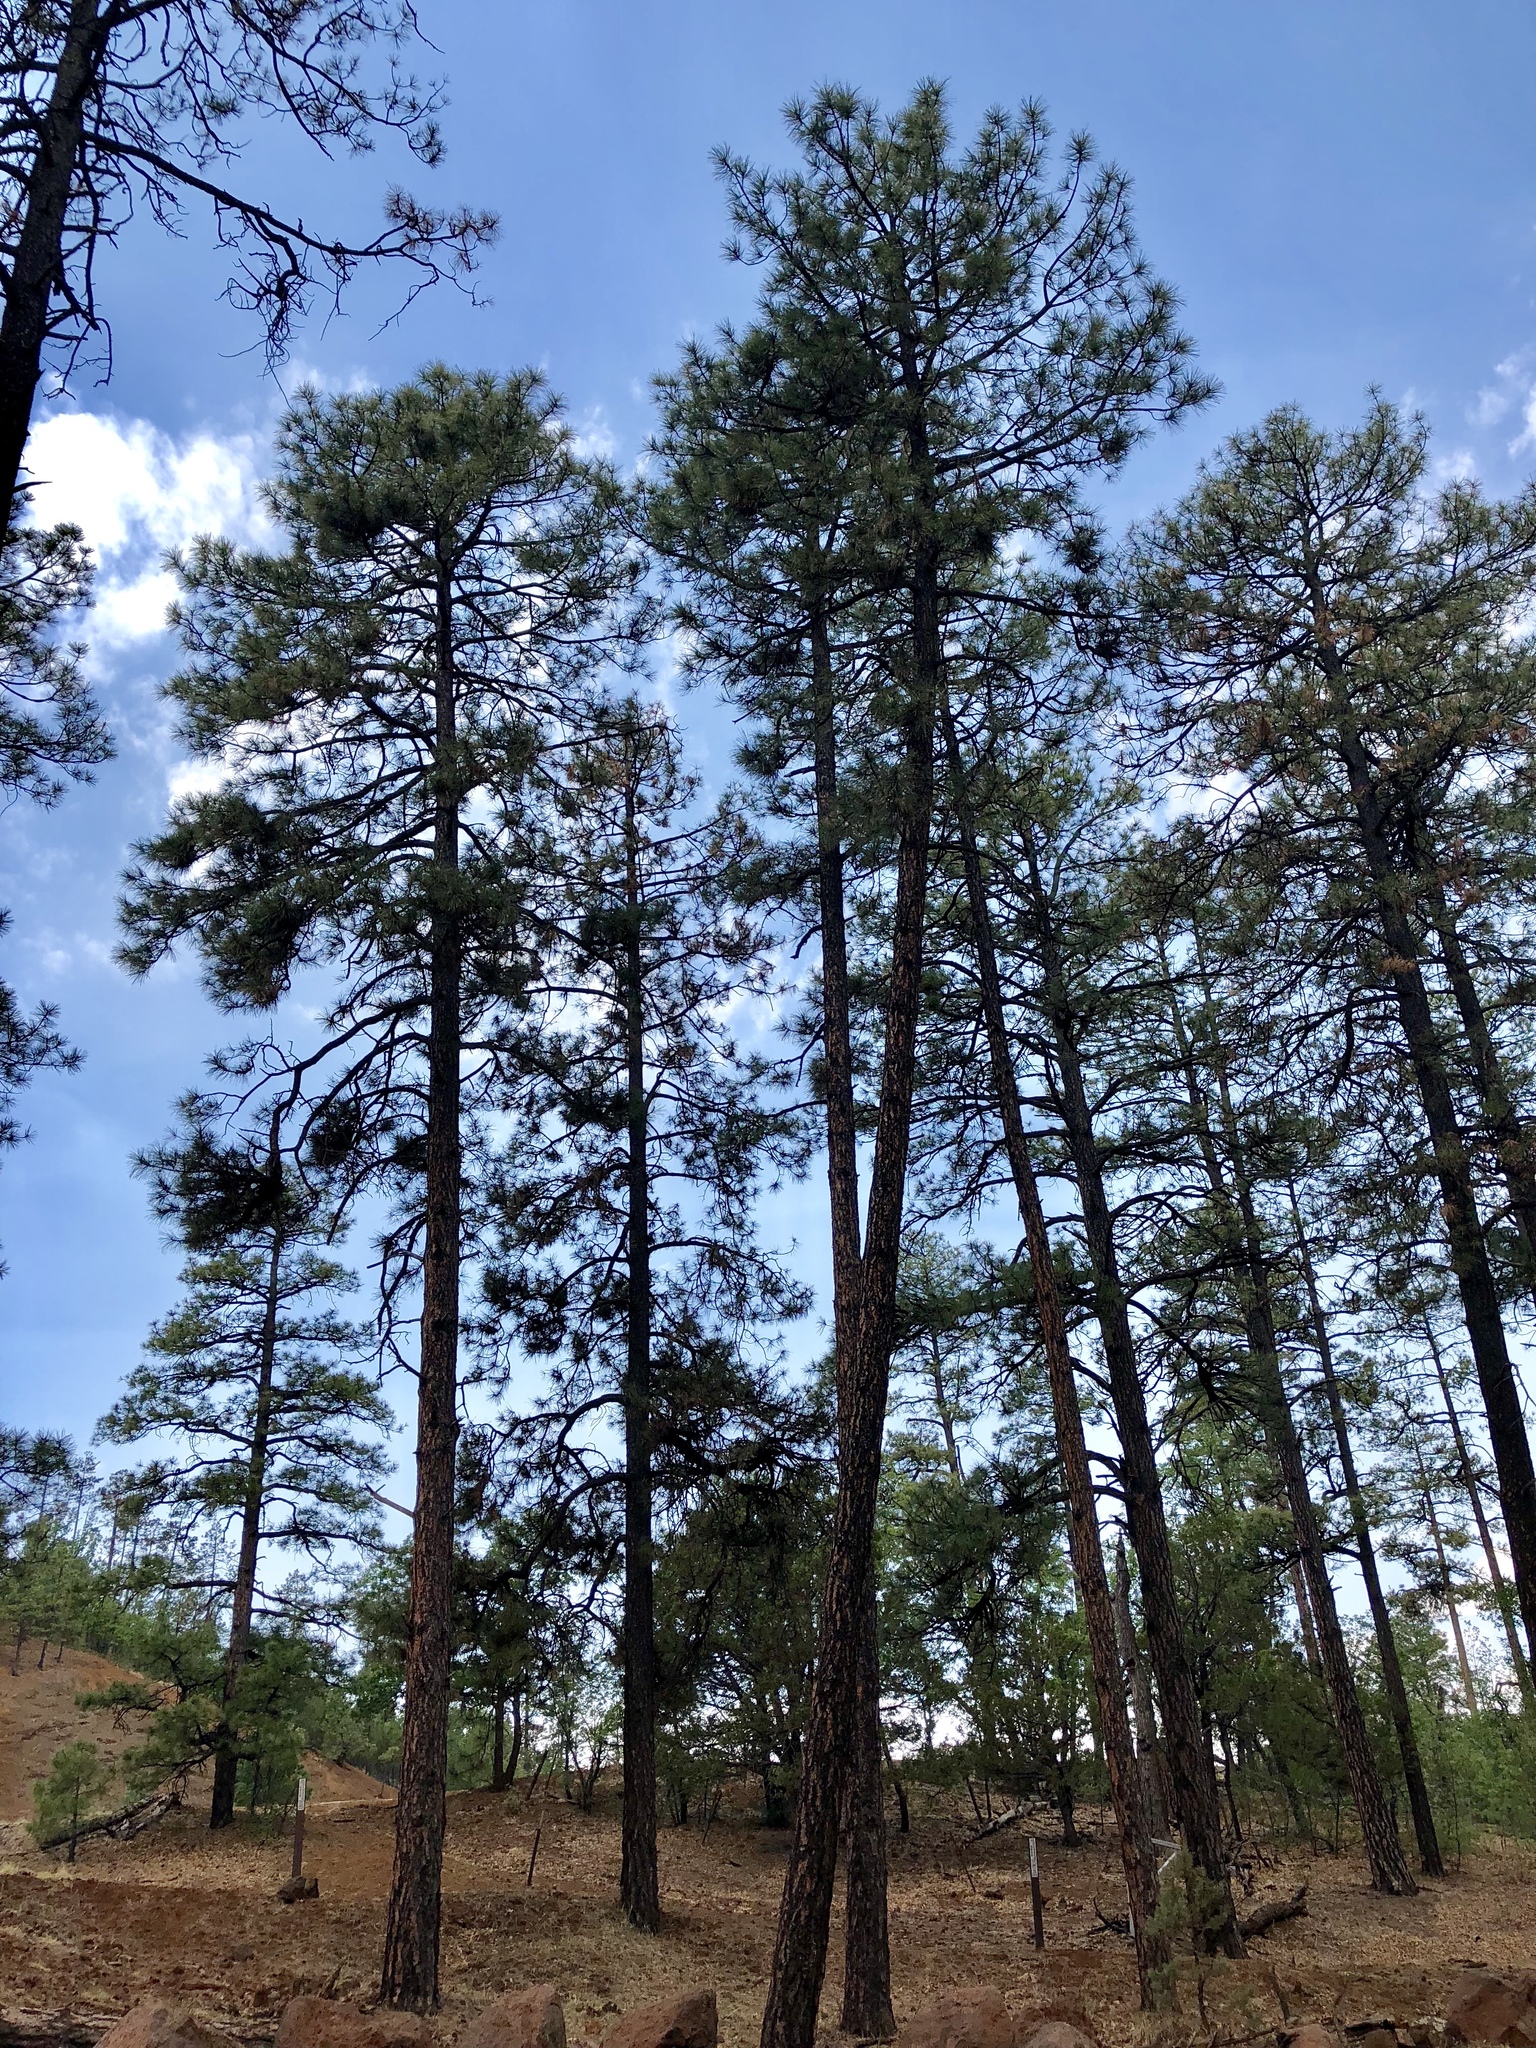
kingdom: Plantae
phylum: Tracheophyta
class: Pinopsida
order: Pinales
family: Pinaceae
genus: Pinus
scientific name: Pinus ponderosa
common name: Western yellow-pine
